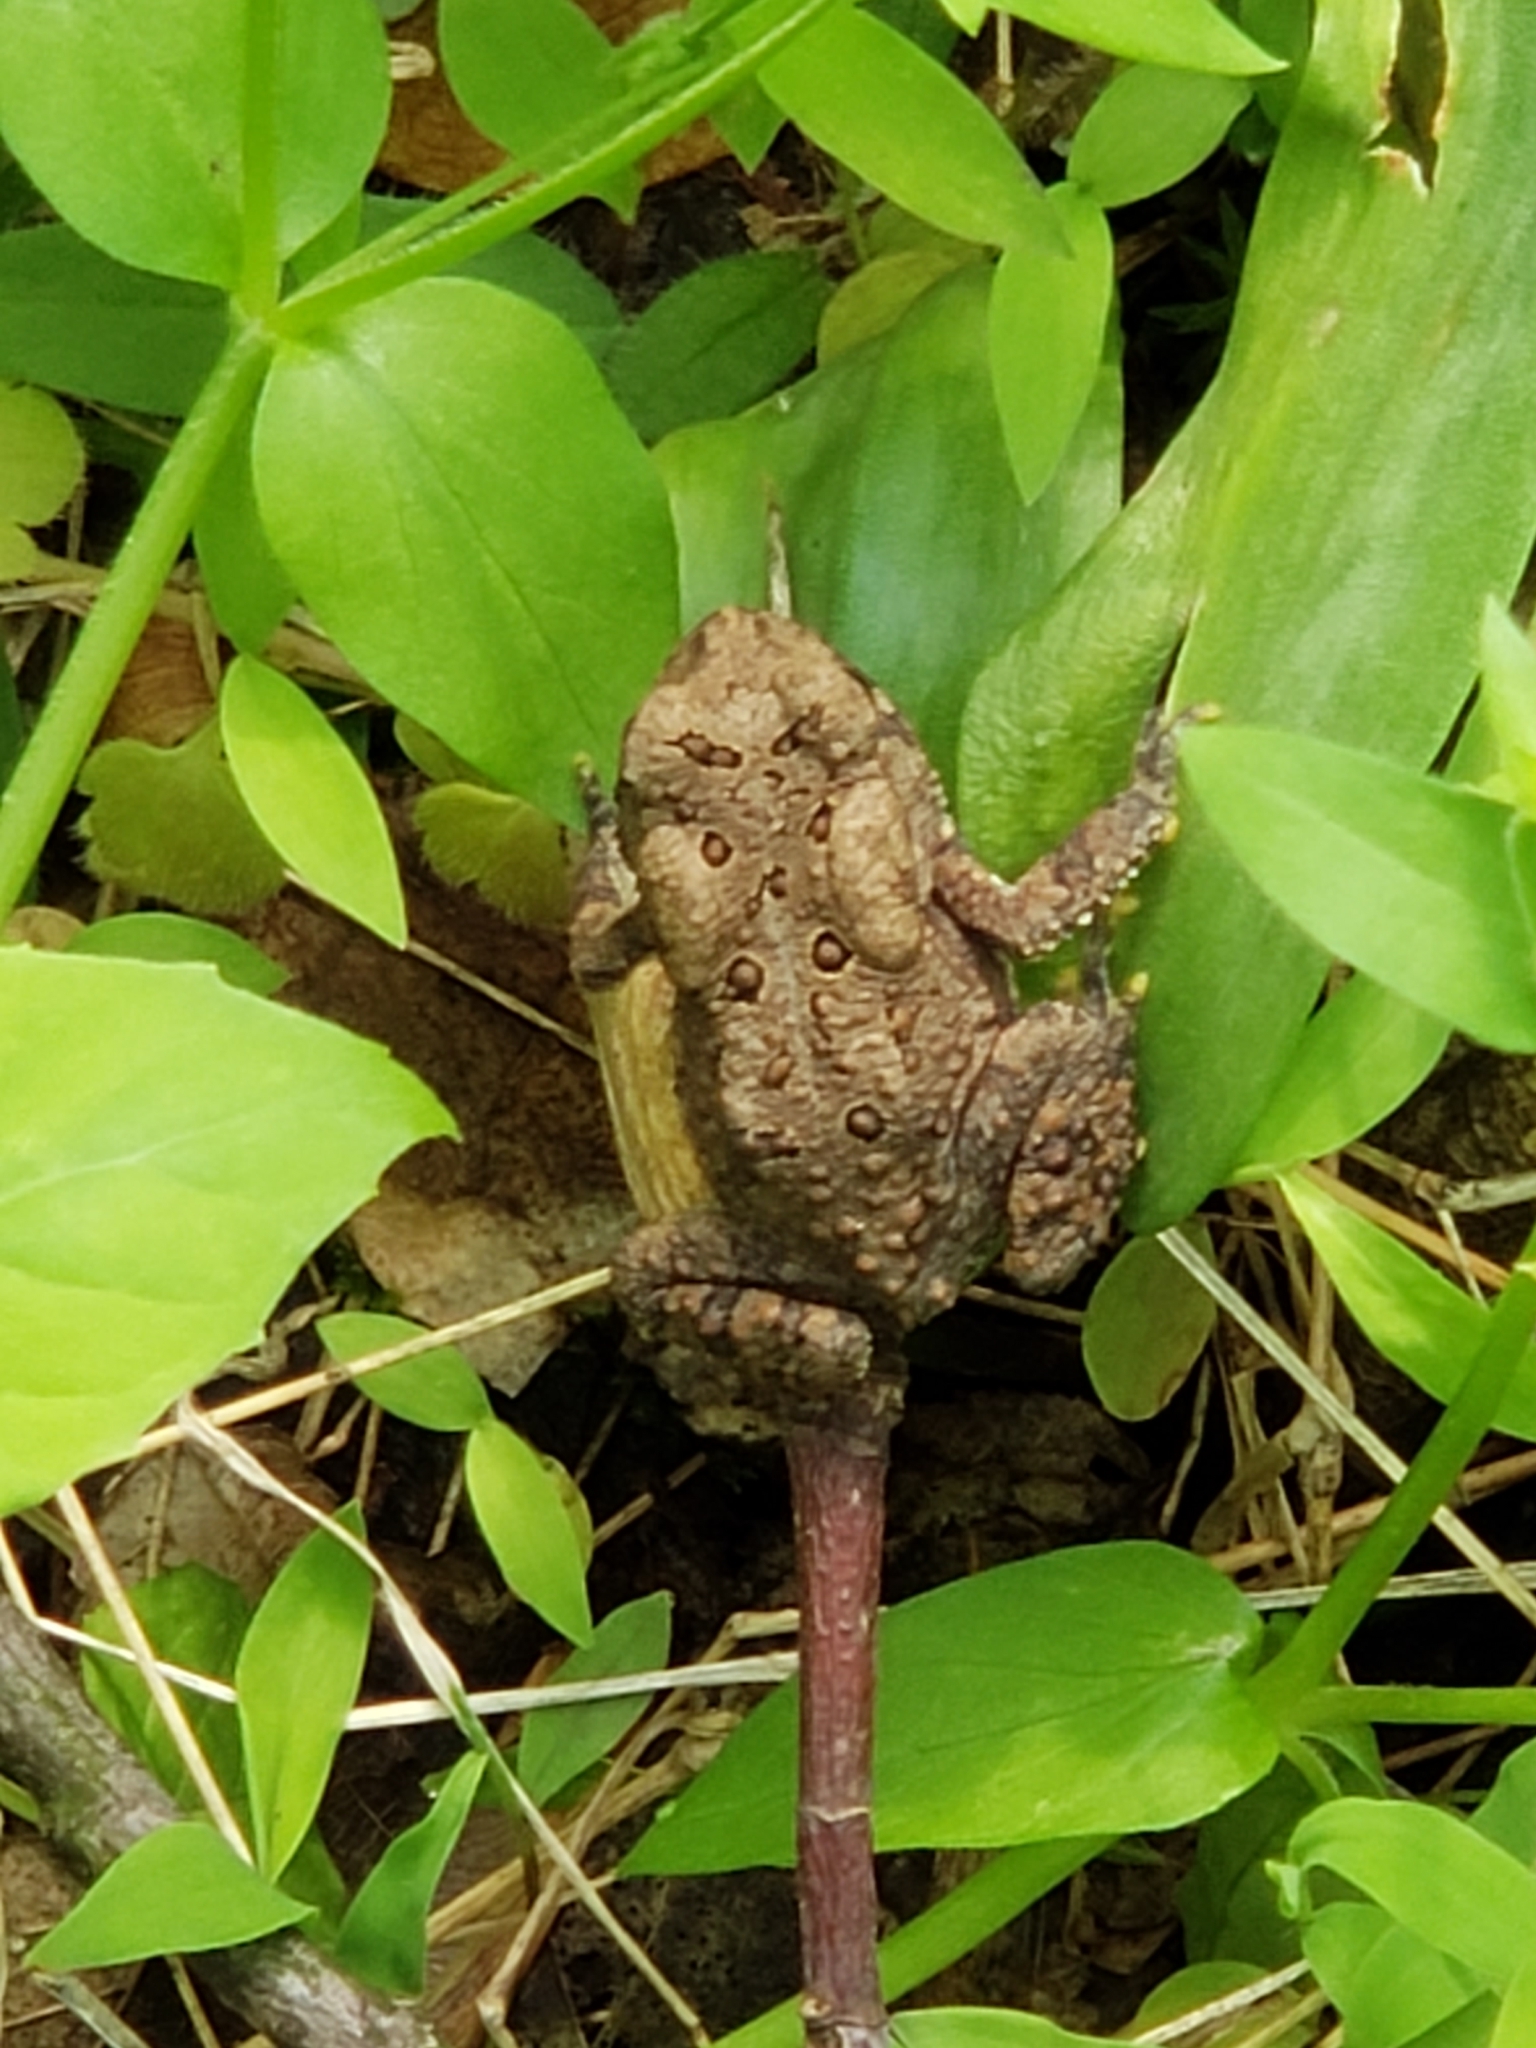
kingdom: Animalia
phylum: Chordata
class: Amphibia
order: Anura
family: Bufonidae
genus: Anaxyrus
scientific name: Anaxyrus americanus
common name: American toad
